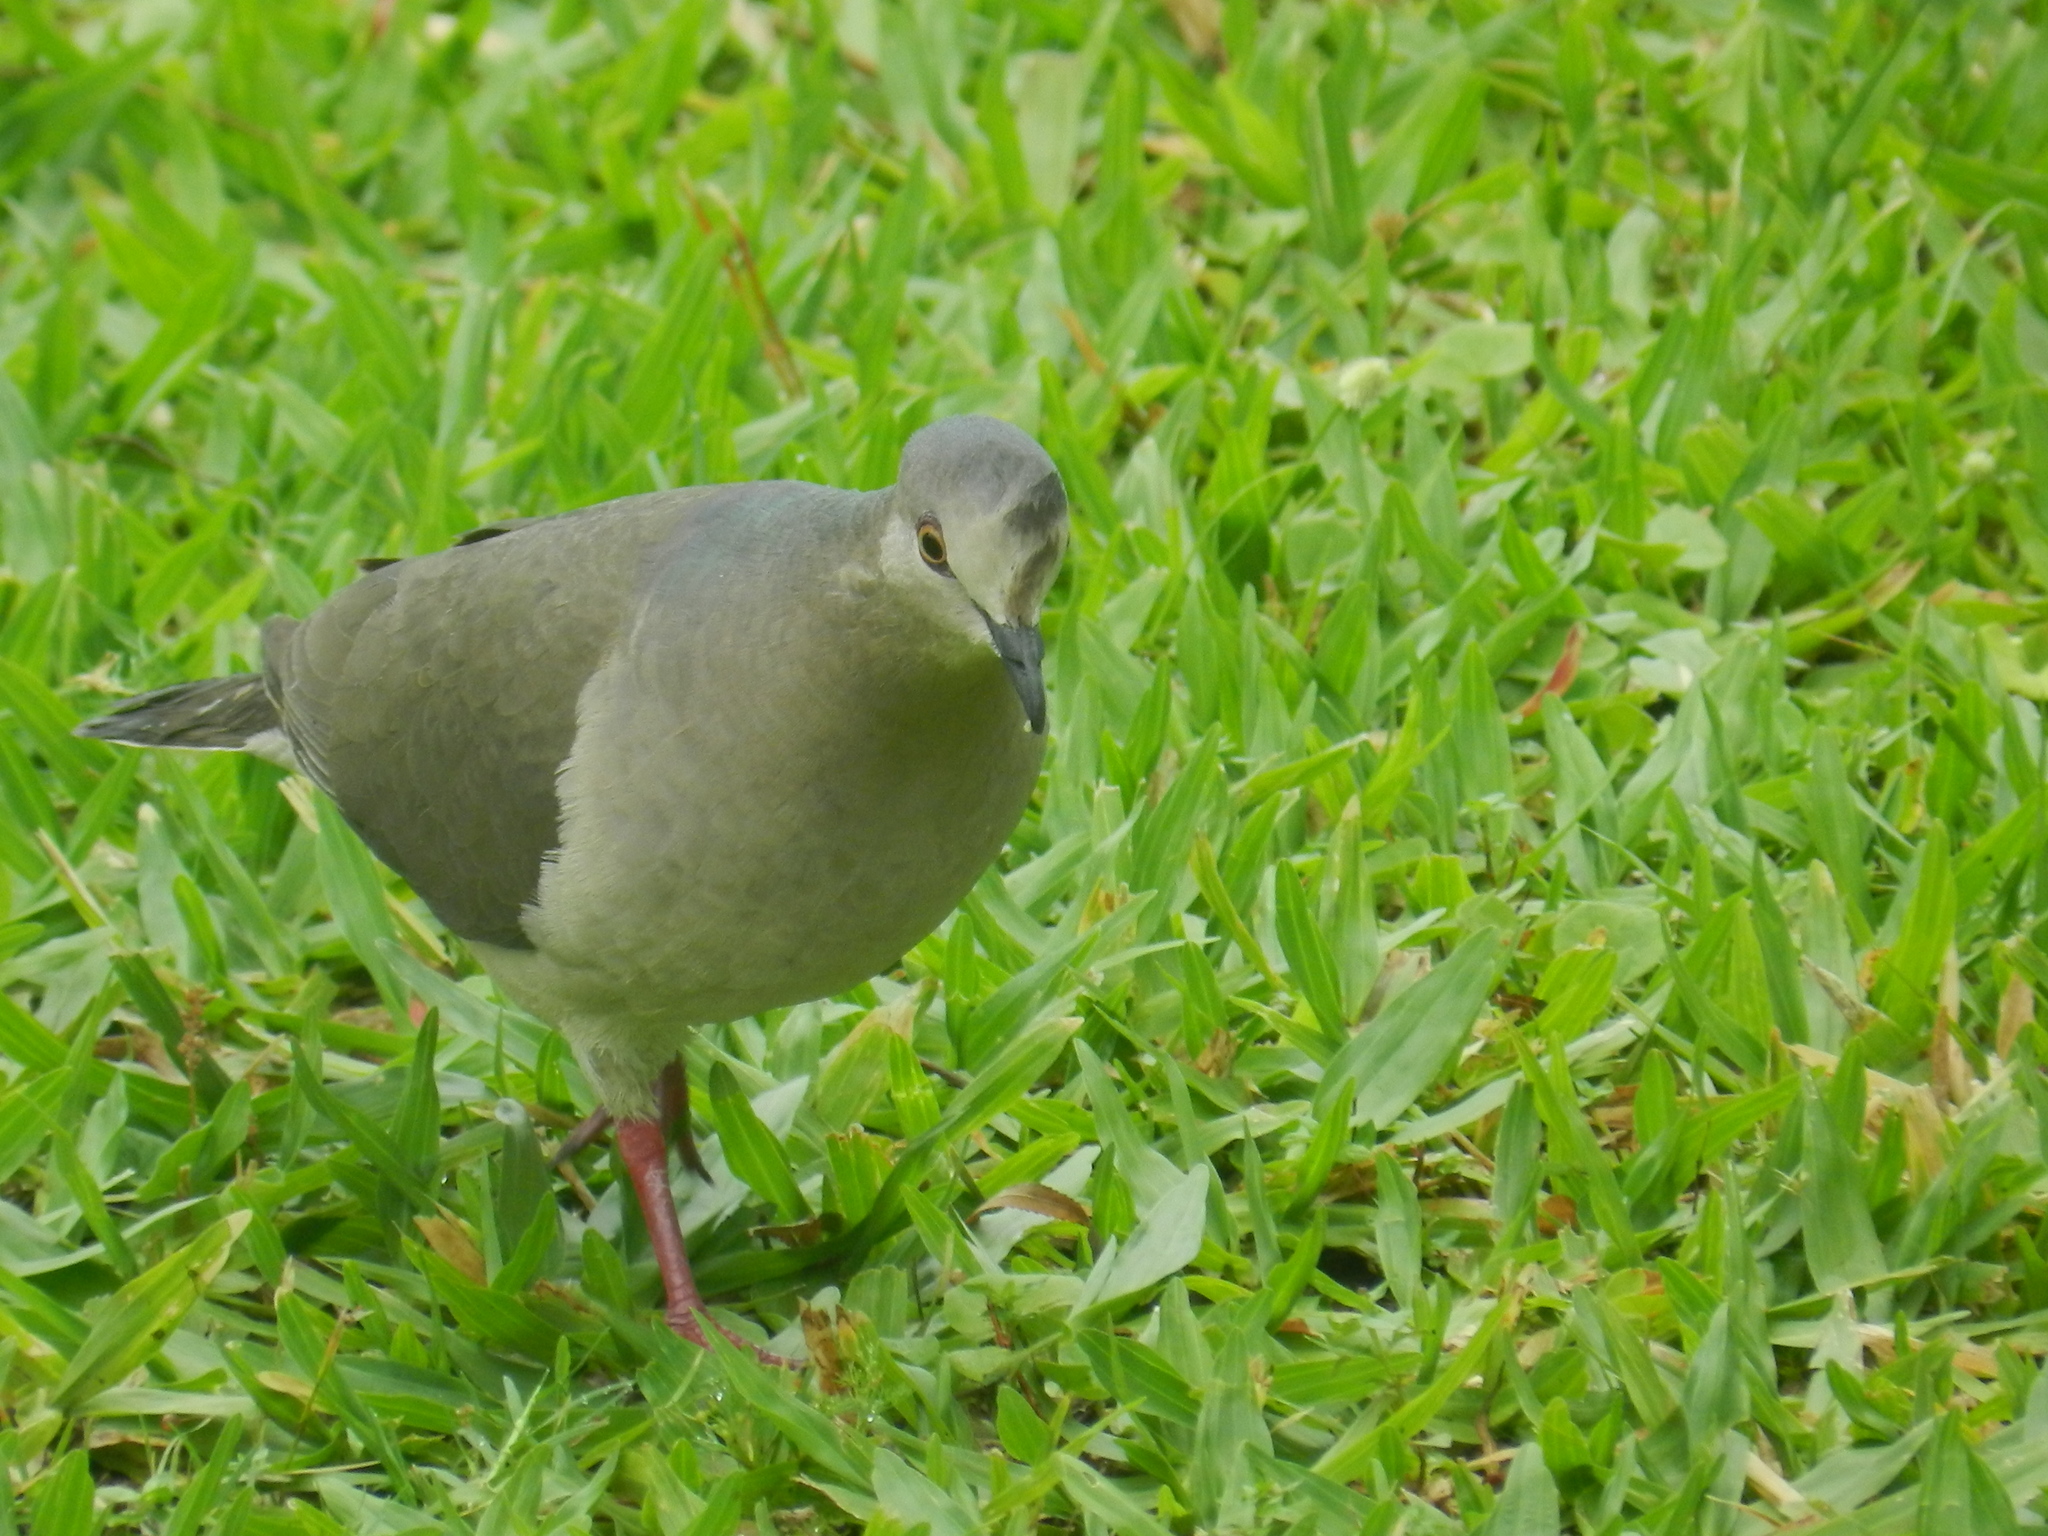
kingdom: Animalia
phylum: Chordata
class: Aves
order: Columbiformes
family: Columbidae
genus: Leptotila
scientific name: Leptotila verreauxi
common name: White-tipped dove
